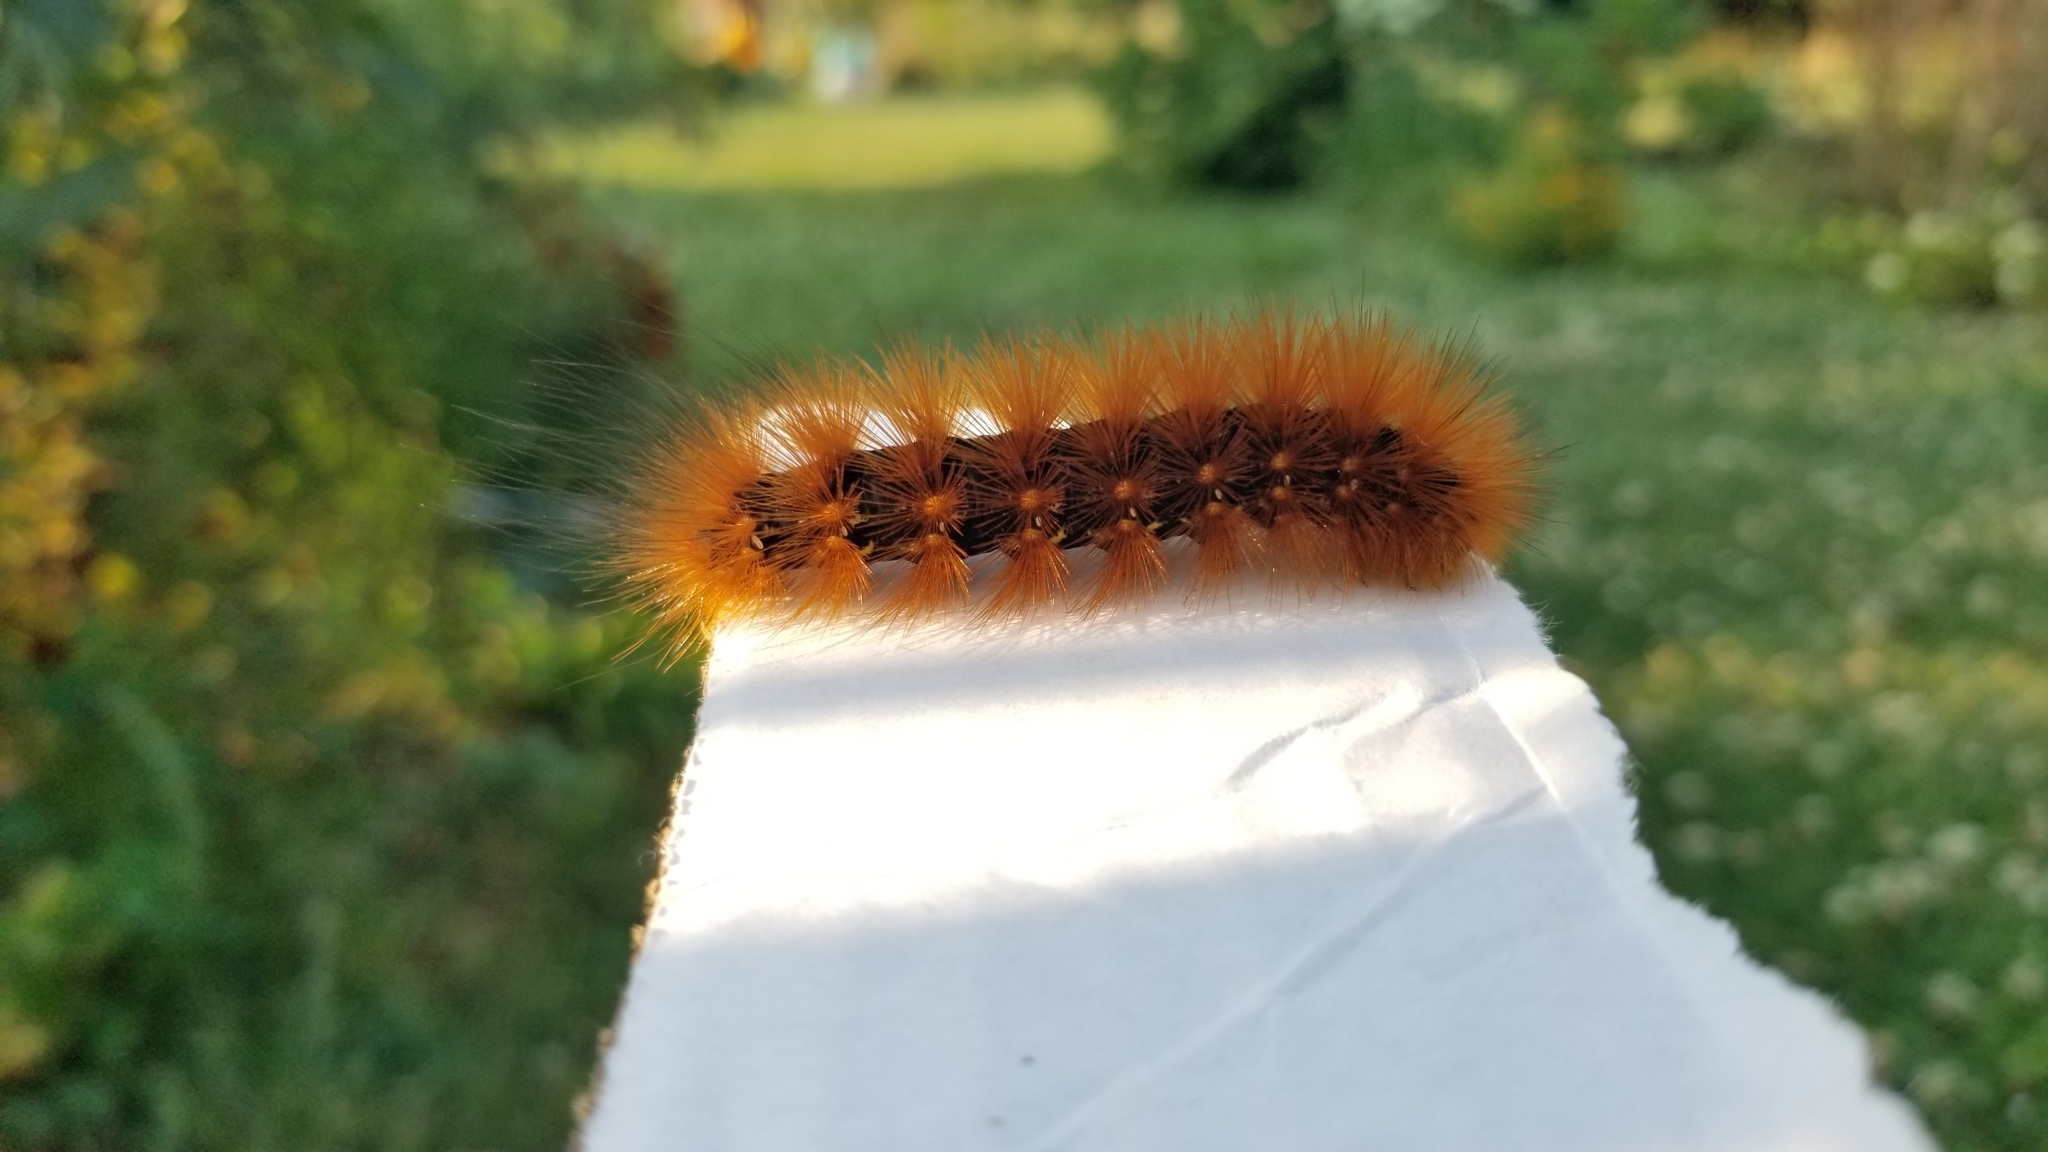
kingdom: Animalia
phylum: Arthropoda
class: Insecta
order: Lepidoptera
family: Erebidae
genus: Estigmene
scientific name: Estigmene acrea
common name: Salt marsh moth
